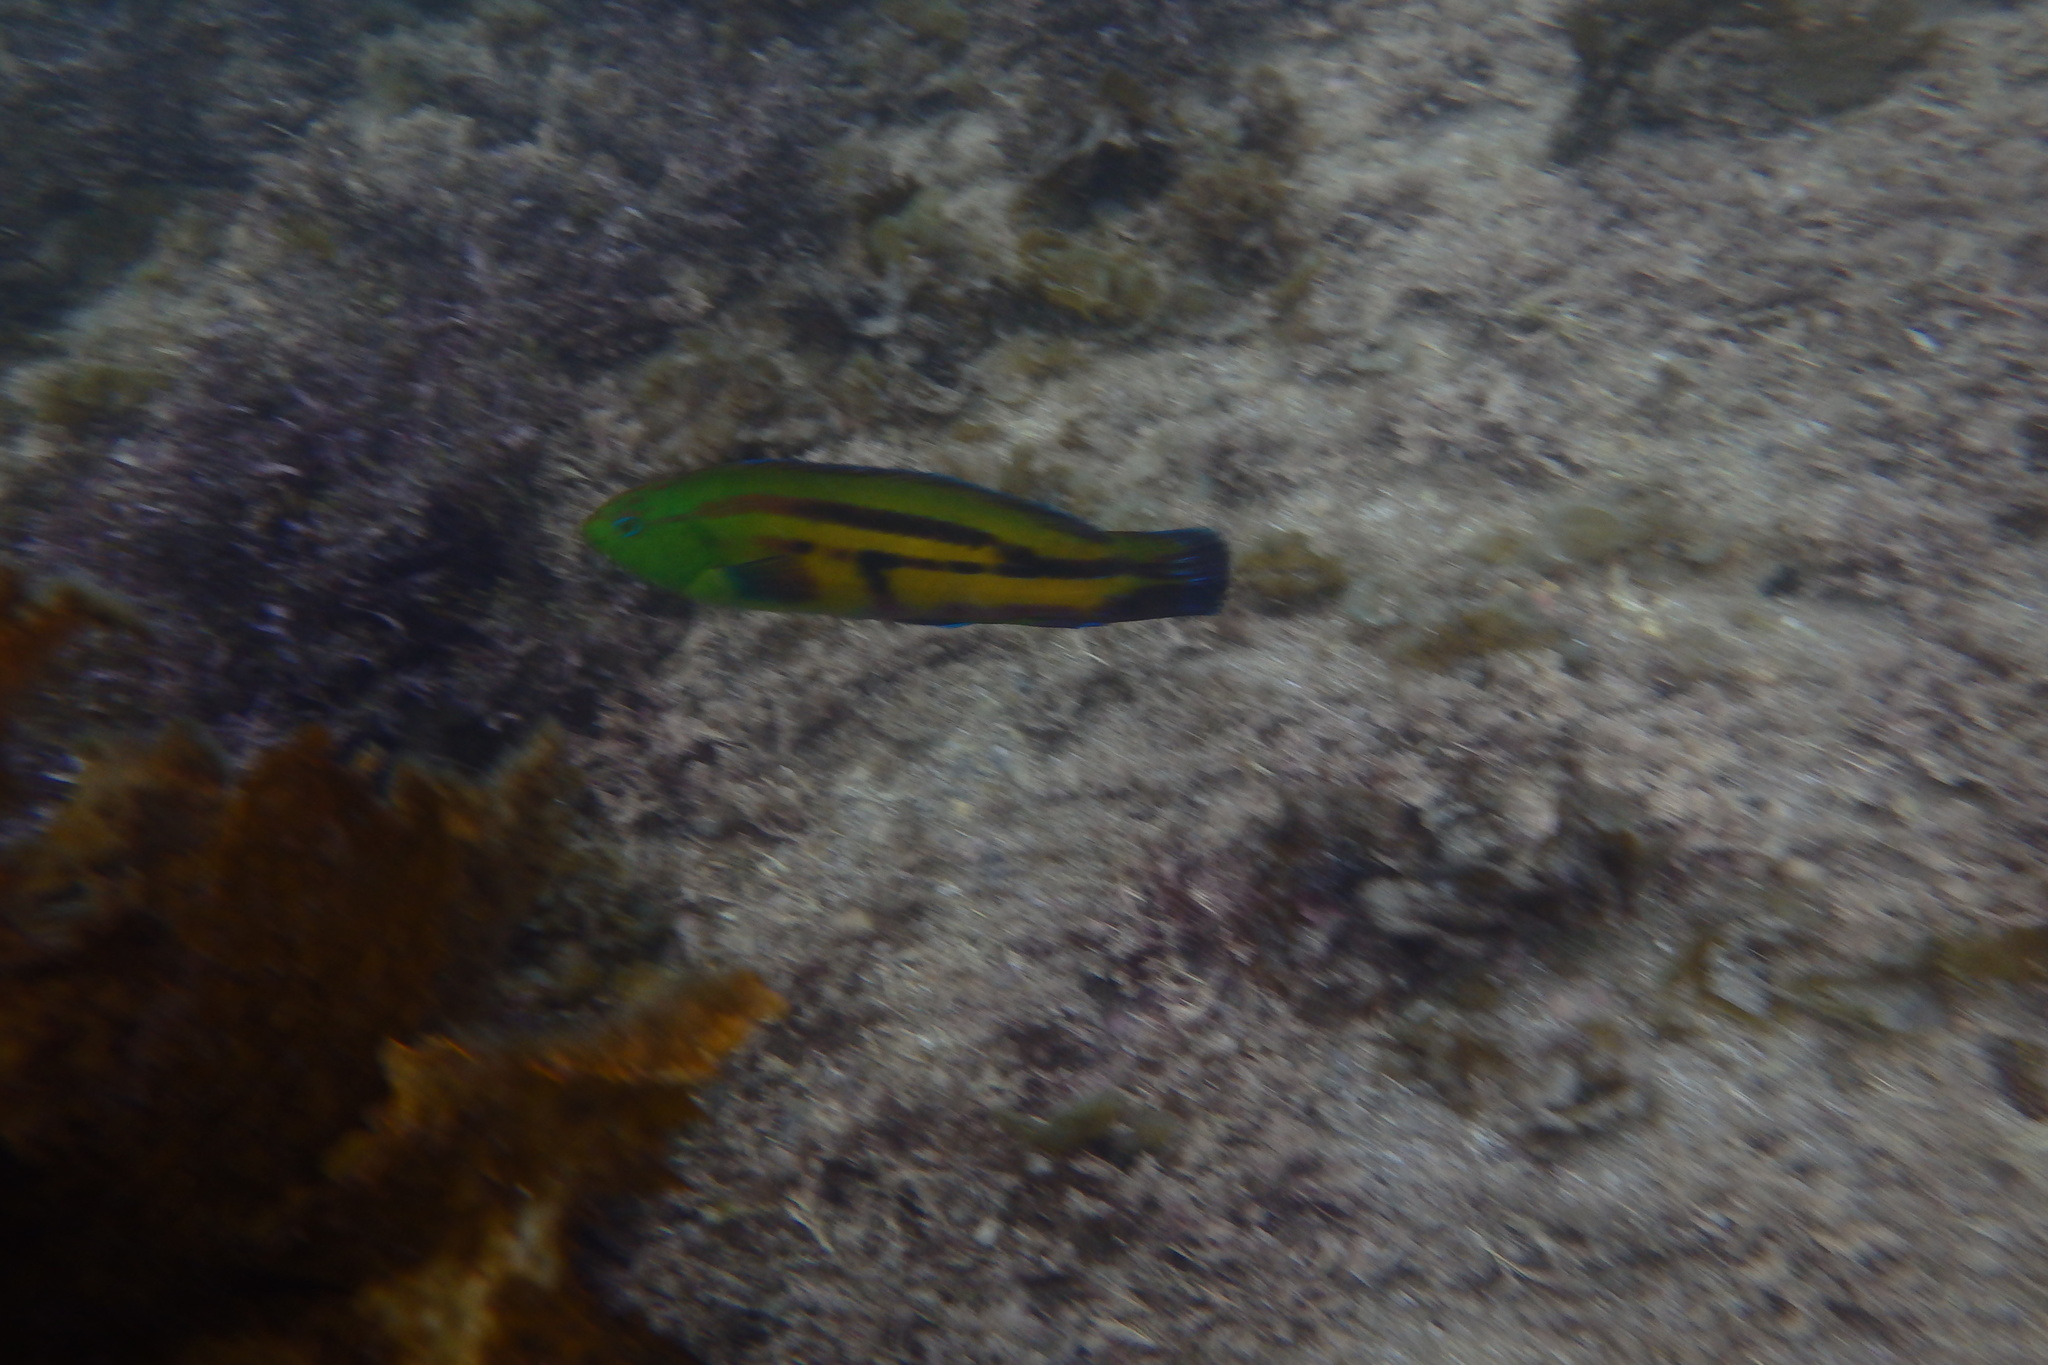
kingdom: Animalia
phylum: Chordata
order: Perciformes
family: Labridae
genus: Pictilabrus
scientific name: Pictilabrus laticlavius
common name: Patrician wrasse
